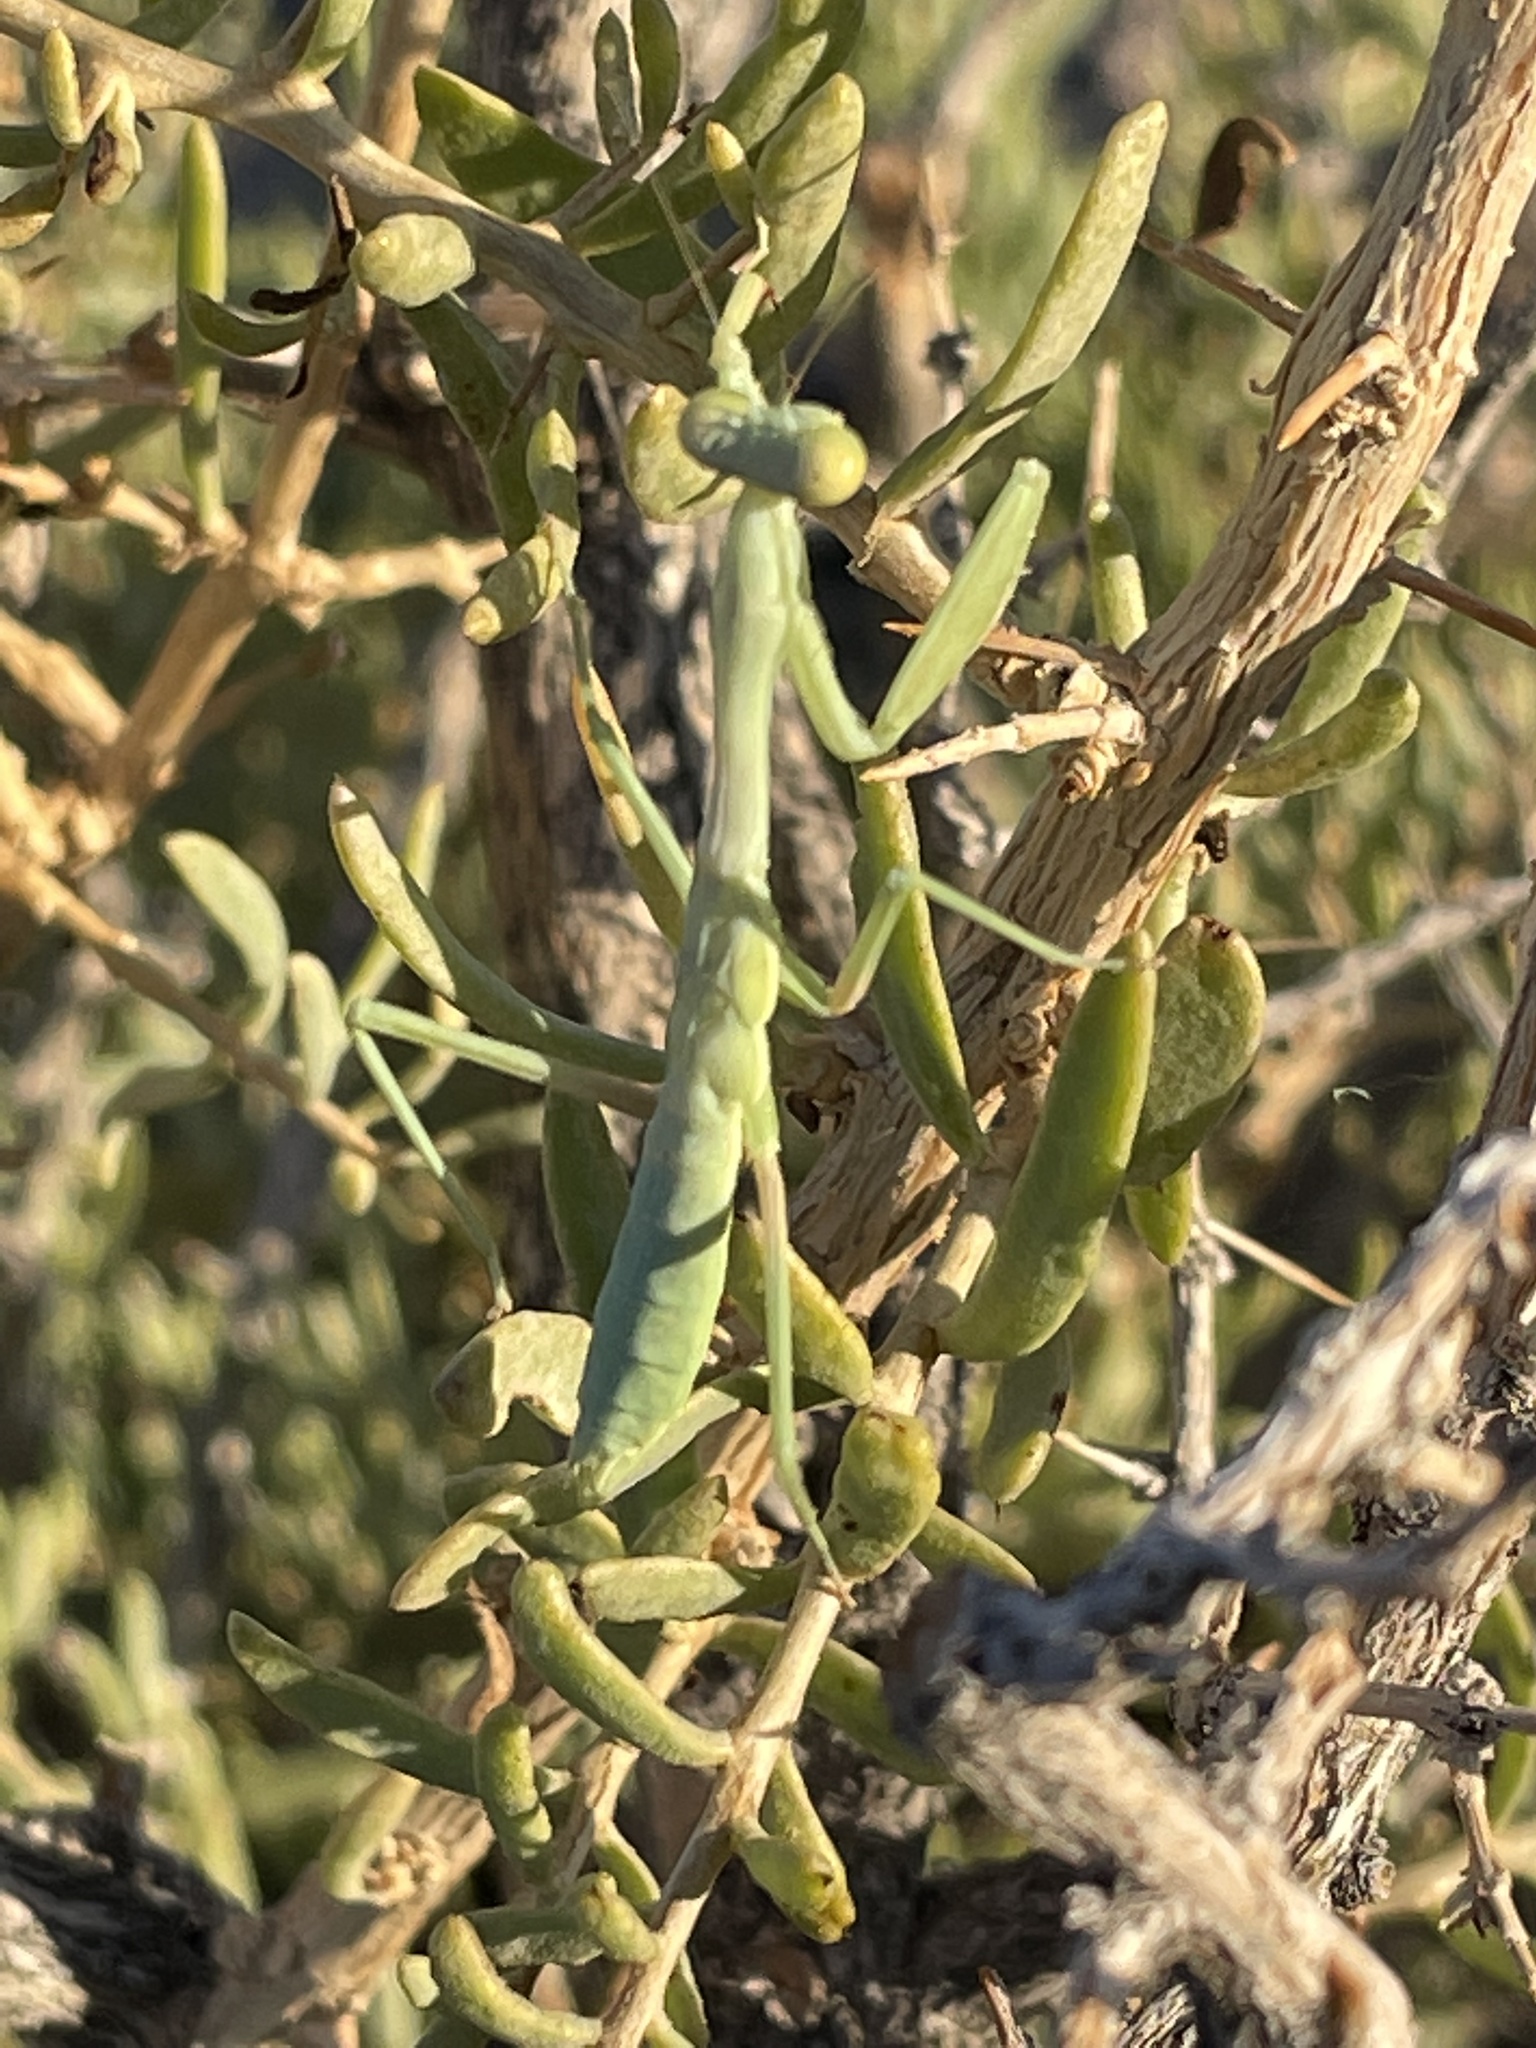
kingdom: Animalia
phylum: Arthropoda
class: Insecta
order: Mantodea
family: Mantidae
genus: Stagmomantis
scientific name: Stagmomantis californica
